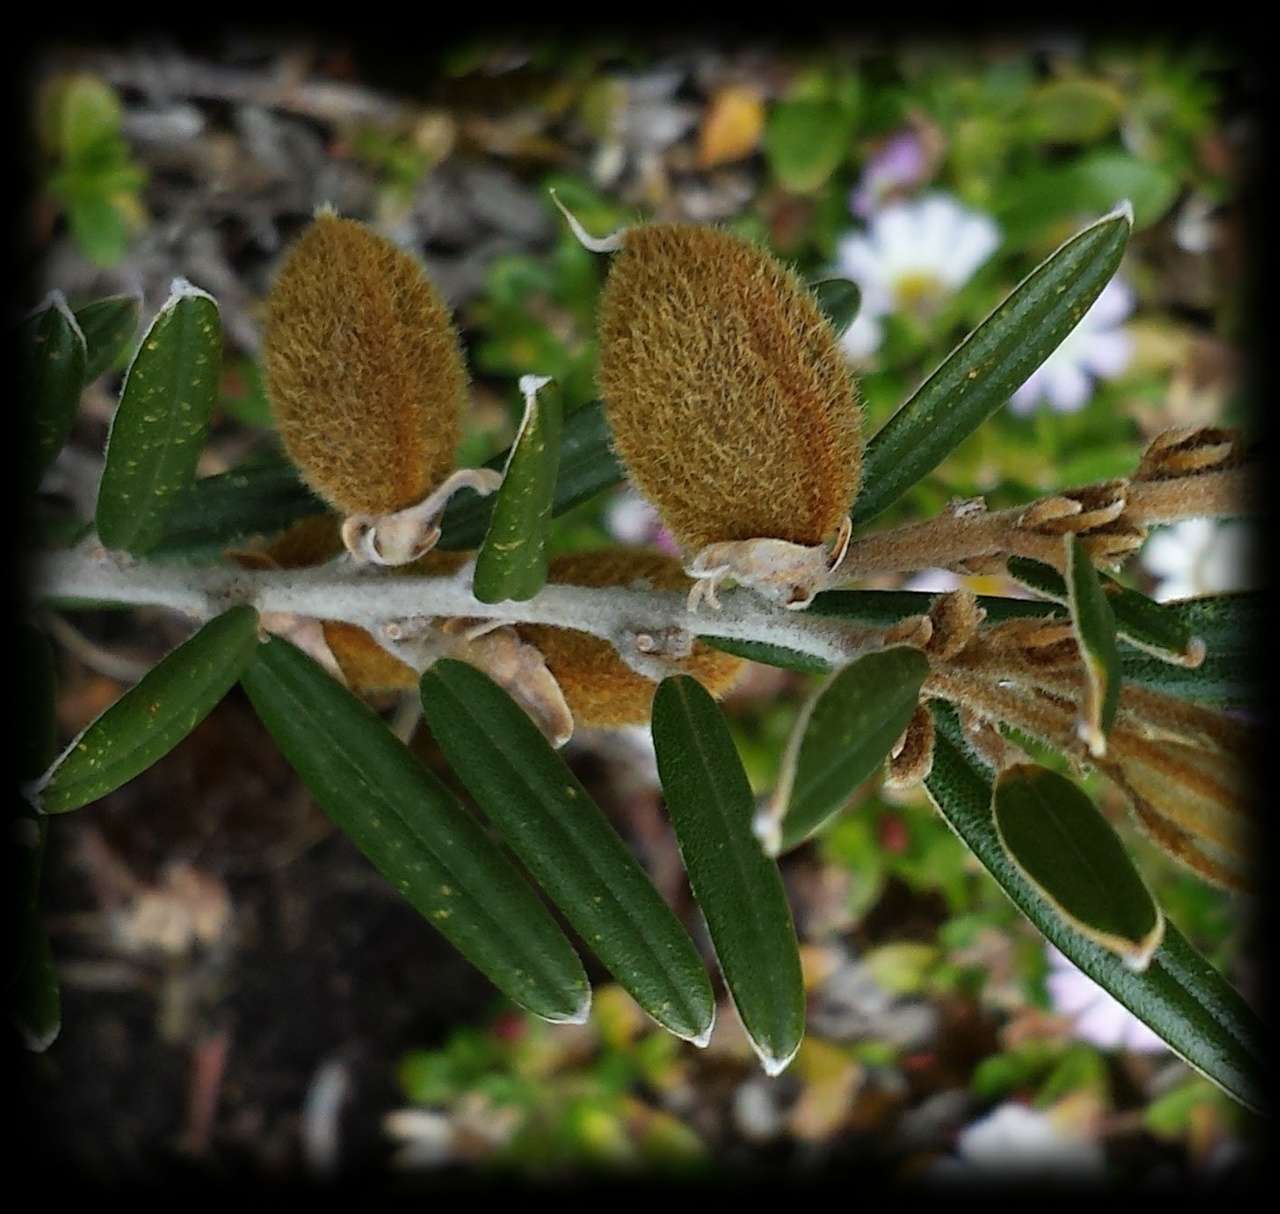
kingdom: Plantae
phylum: Tracheophyta
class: Magnoliopsida
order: Fabales
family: Fabaceae
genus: Hovea
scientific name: Hovea montana
